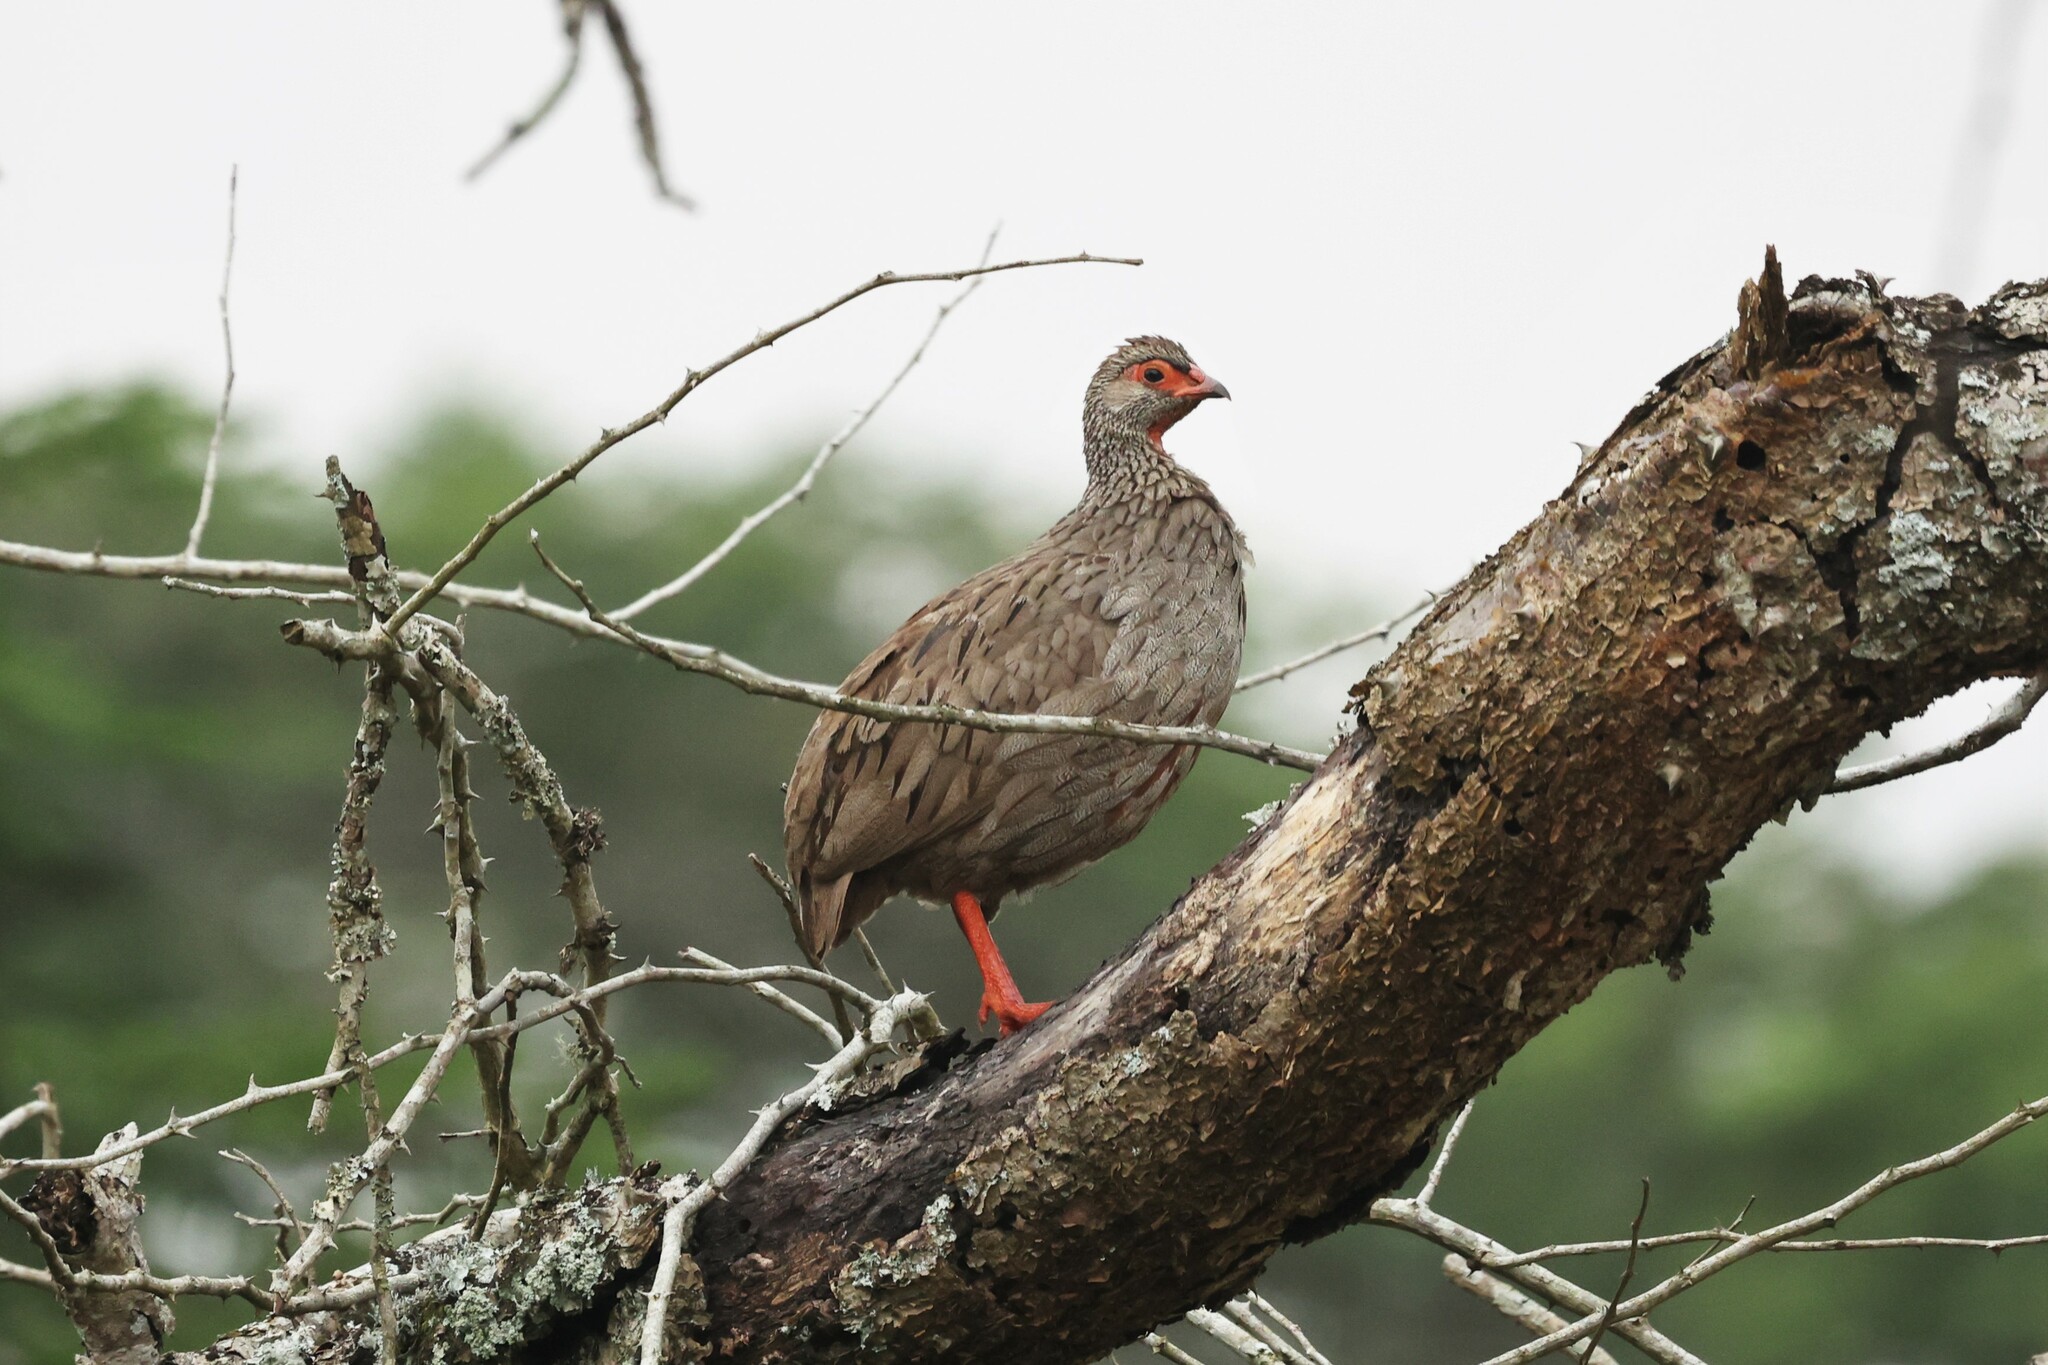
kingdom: Animalia
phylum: Chordata
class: Aves
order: Galliformes
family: Phasianidae
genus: Pternistis
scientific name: Pternistis afer
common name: Red-necked spurfowl
